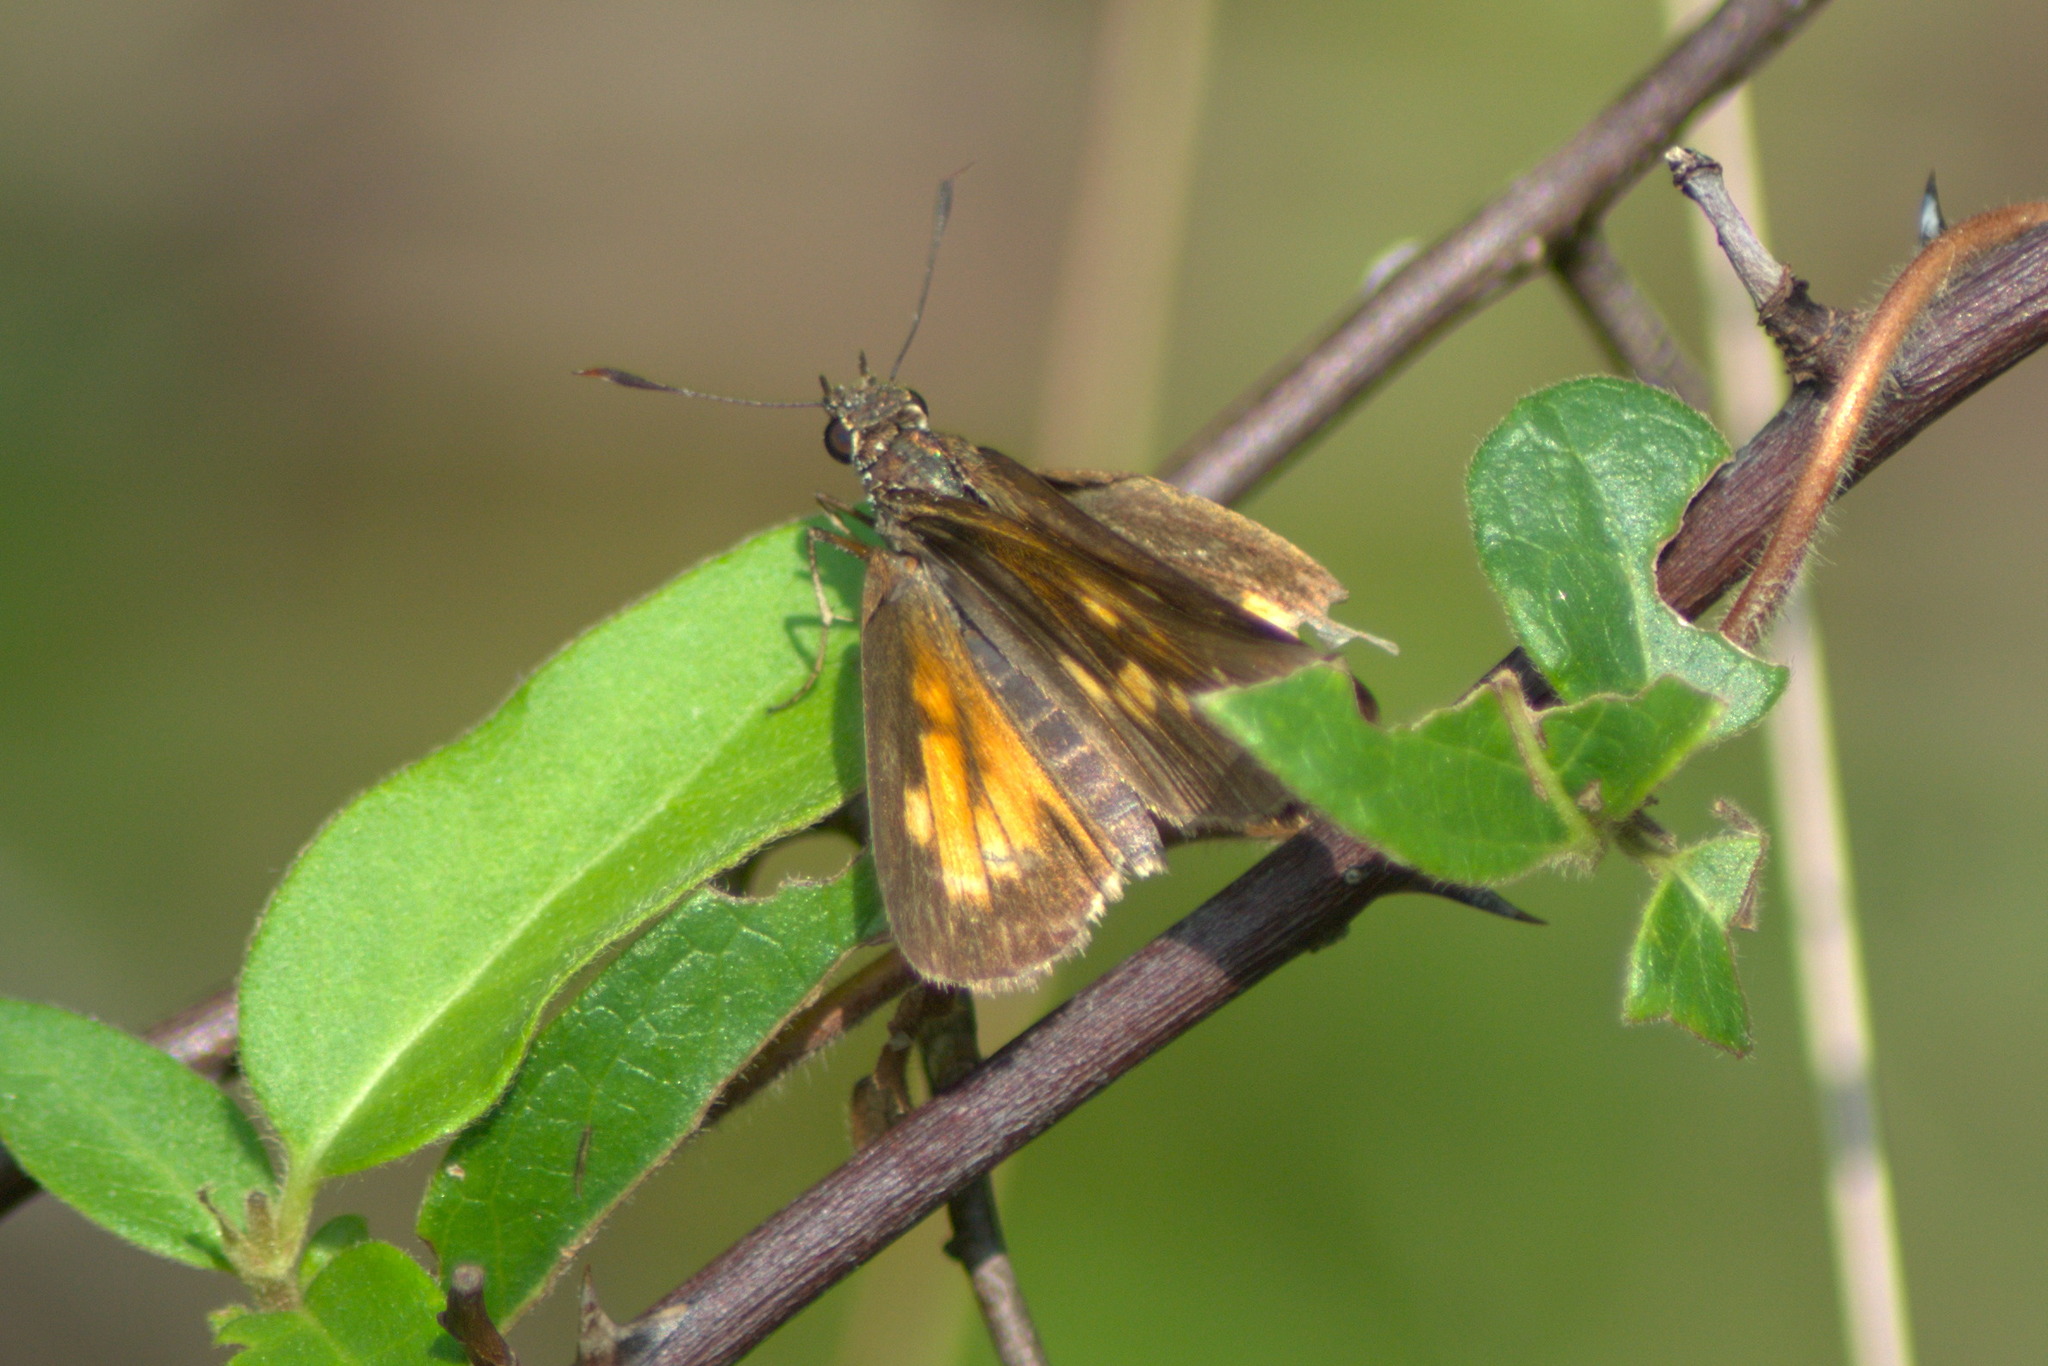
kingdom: Animalia
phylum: Arthropoda
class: Insecta
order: Lepidoptera
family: Hesperiidae
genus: Poanes
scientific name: Poanes viator
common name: Broad-winged skipper
